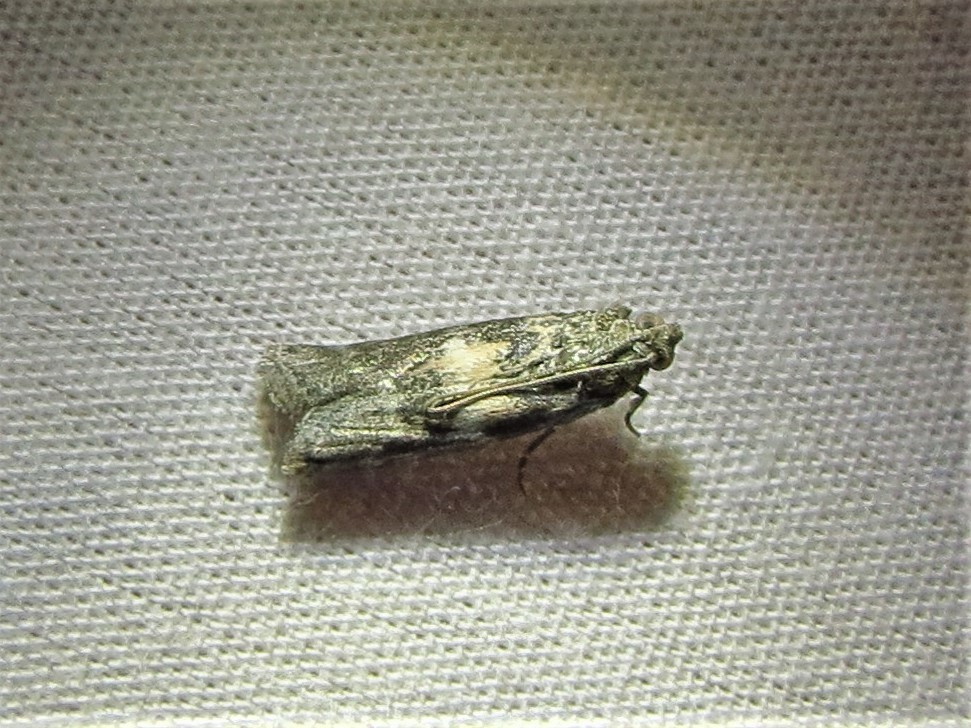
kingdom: Animalia
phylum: Arthropoda
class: Insecta
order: Lepidoptera
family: Pyralidae
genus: Tacoma
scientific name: Tacoma feriella
